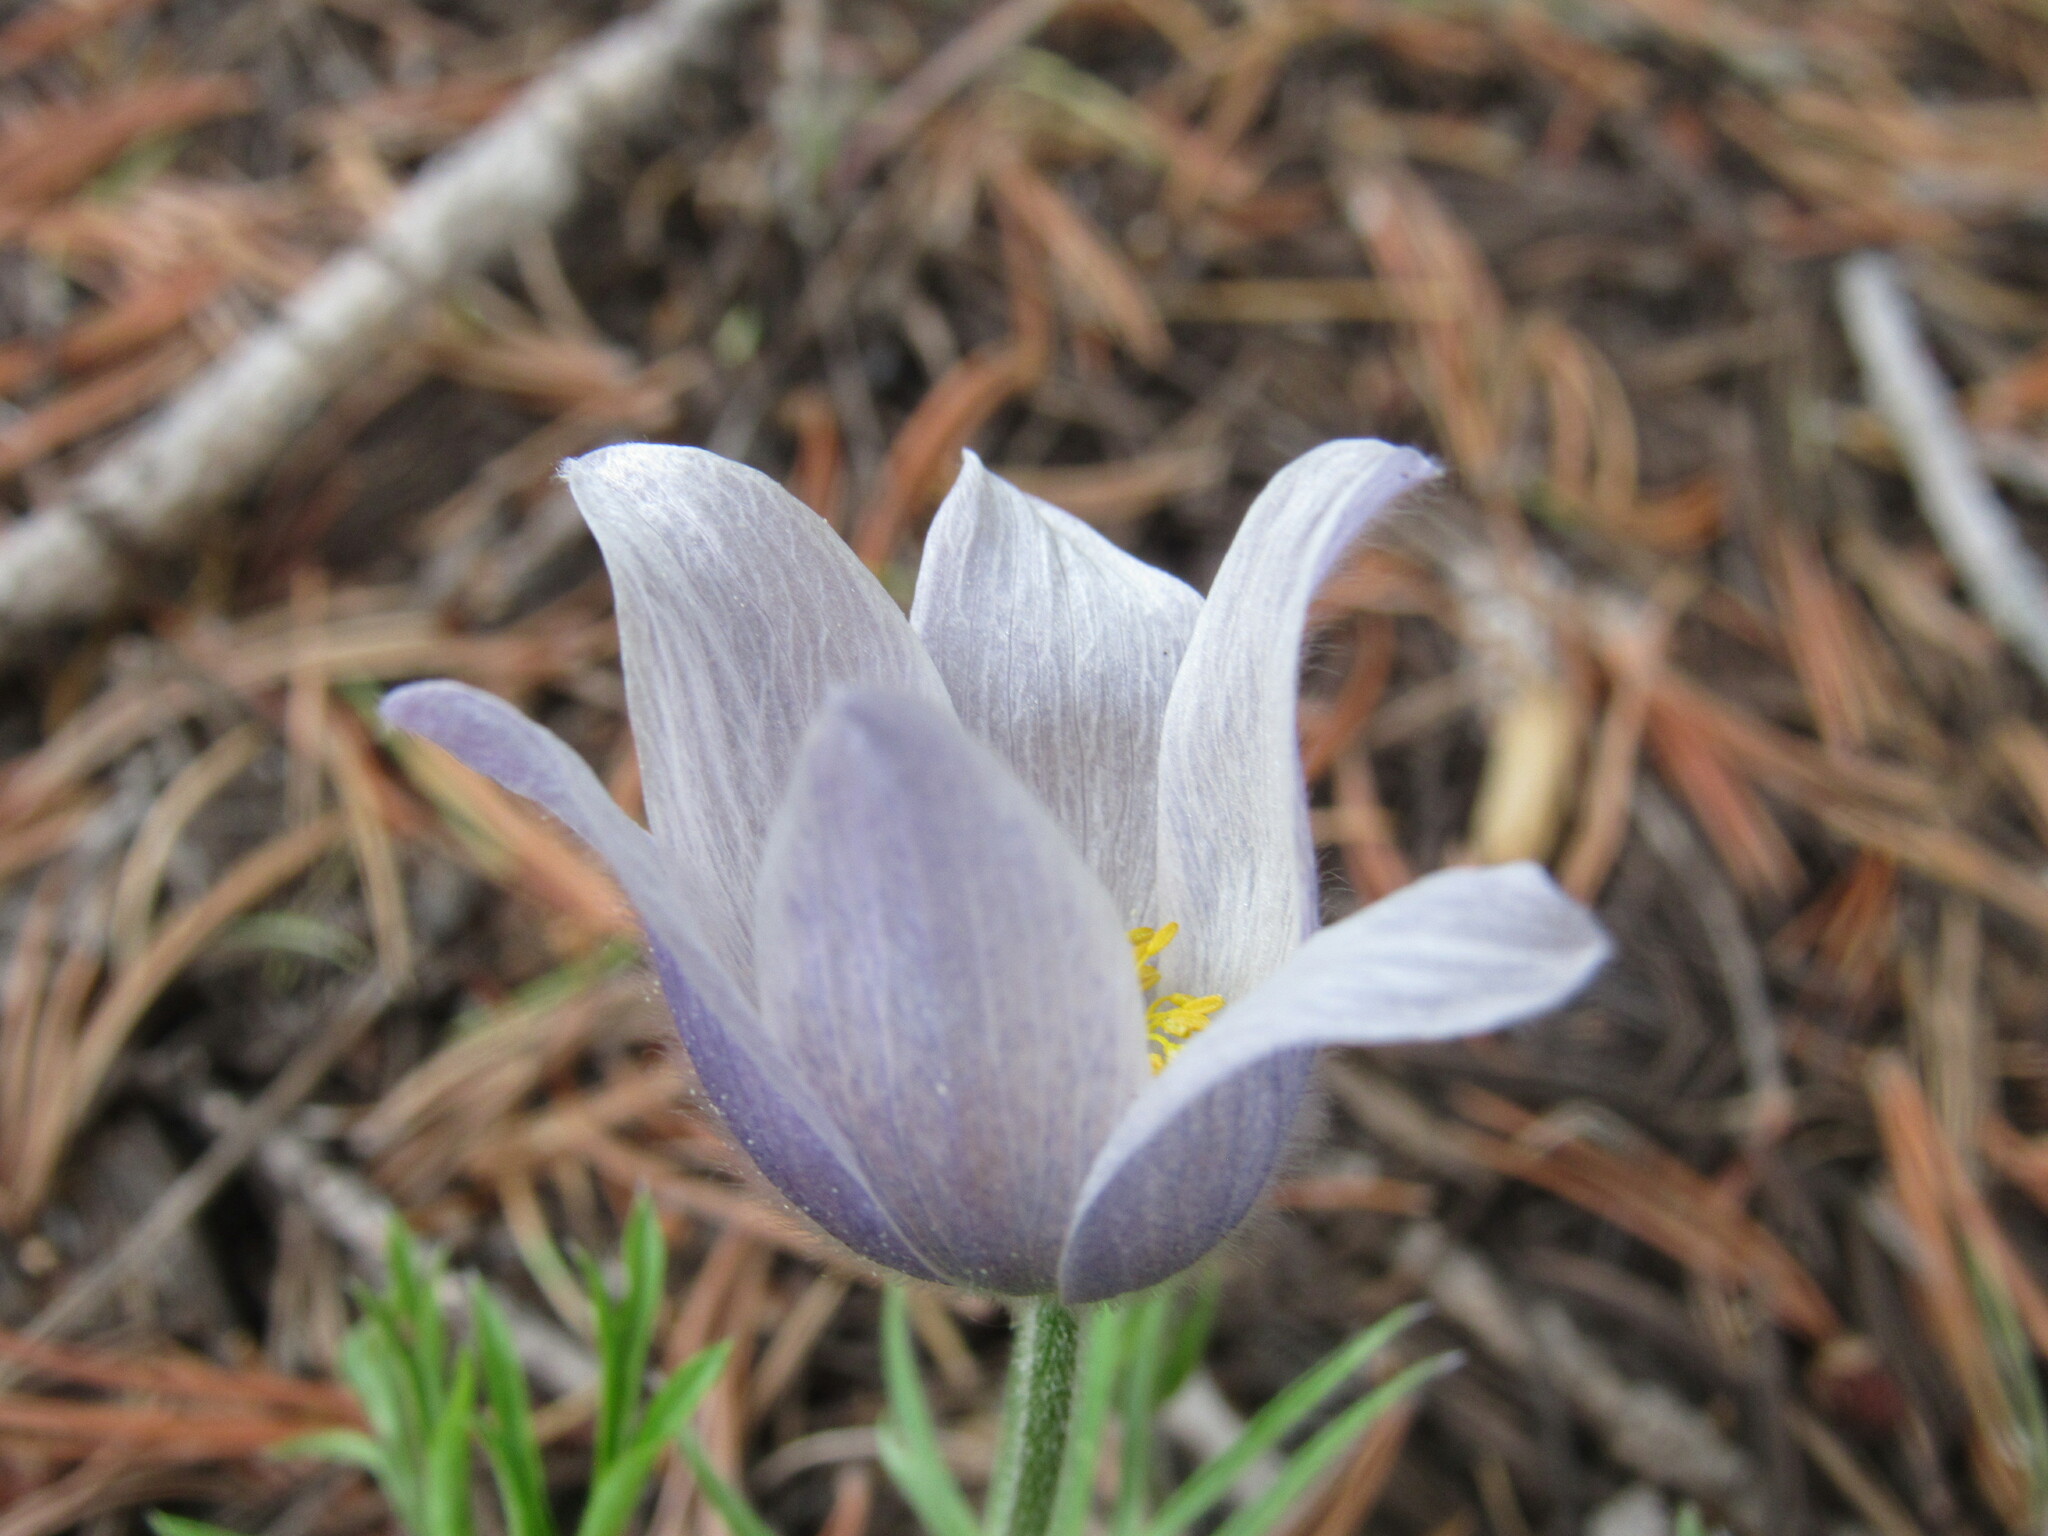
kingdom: Plantae
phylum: Tracheophyta
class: Magnoliopsida
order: Ranunculales
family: Ranunculaceae
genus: Pulsatilla
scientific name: Pulsatilla nuttalliana
